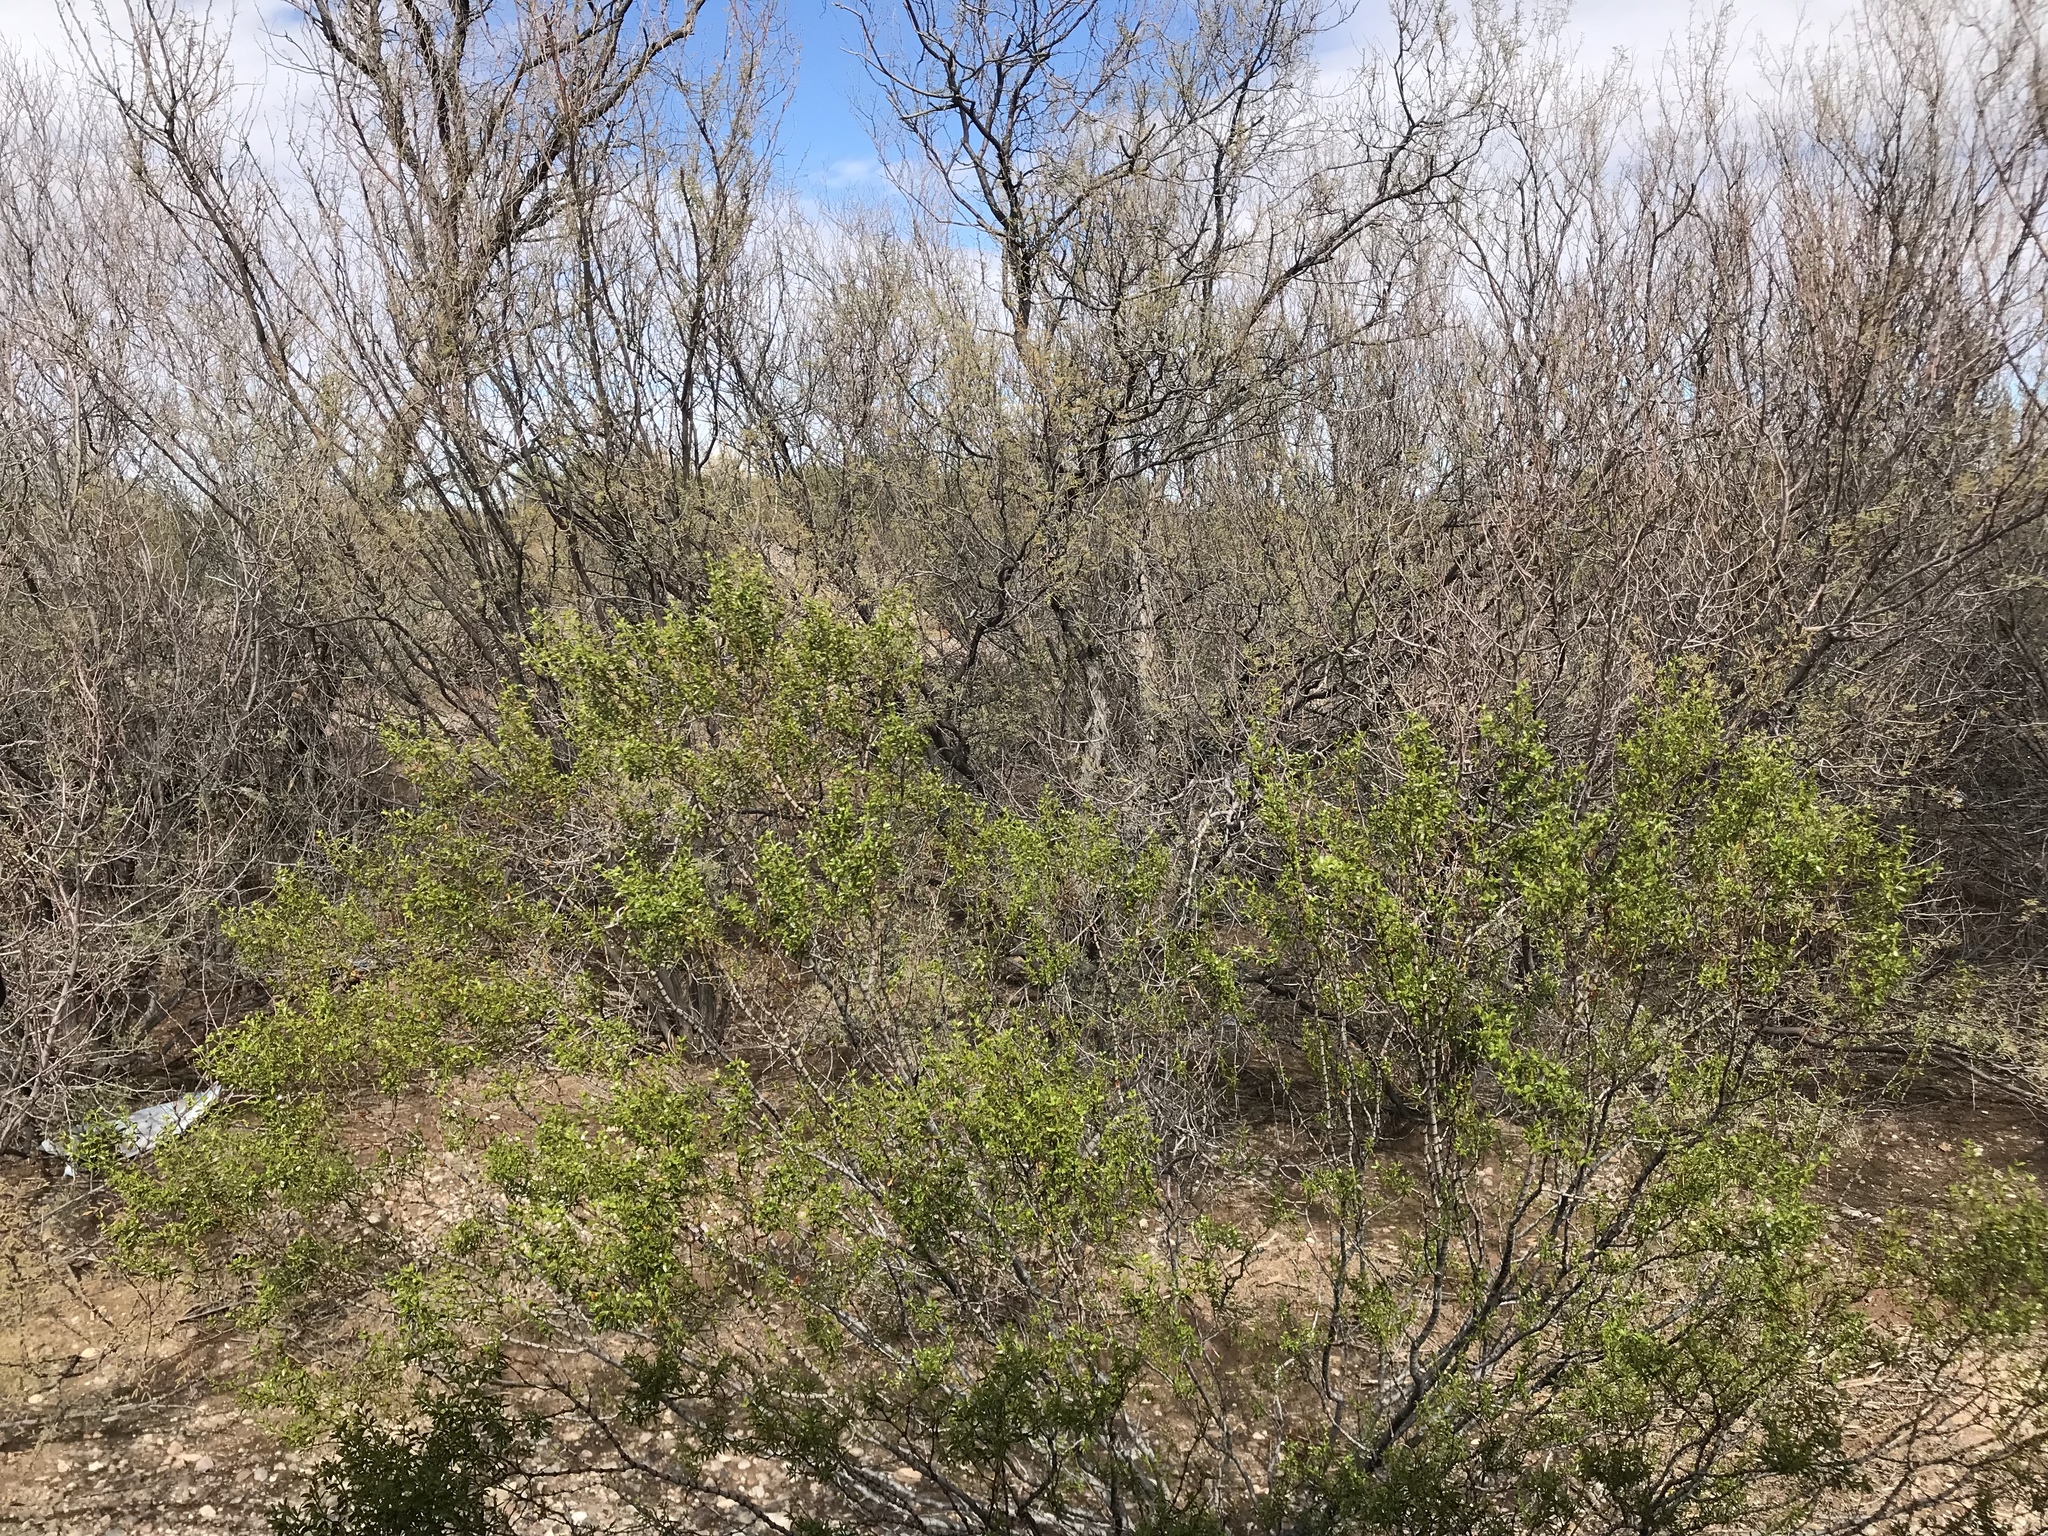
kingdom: Plantae
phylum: Tracheophyta
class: Magnoliopsida
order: Zygophyllales
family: Zygophyllaceae
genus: Larrea
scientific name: Larrea tridentata
